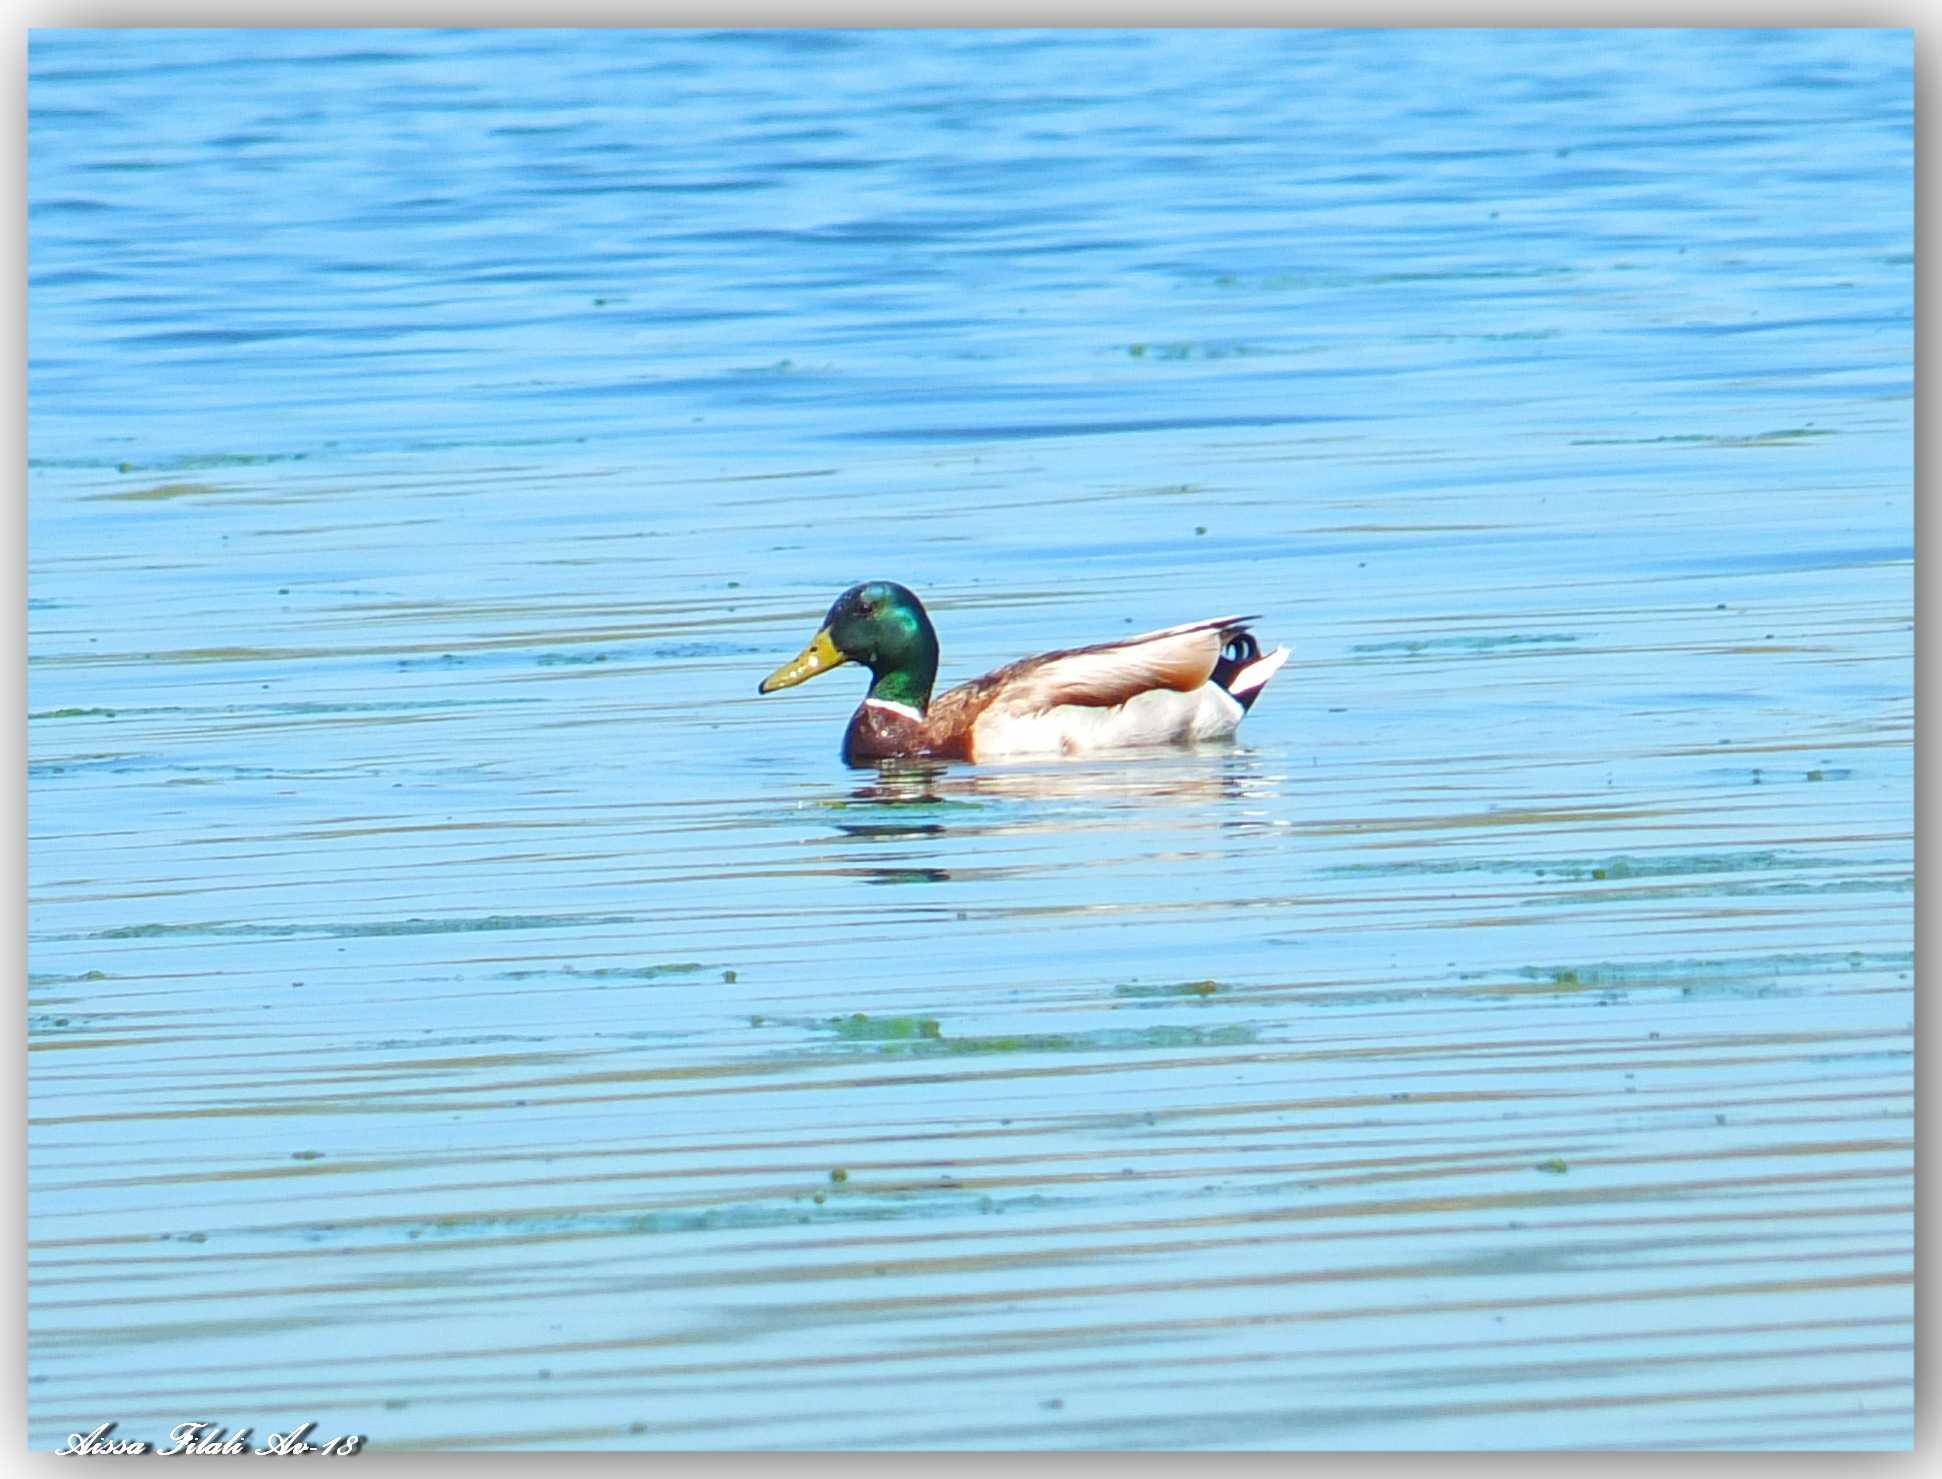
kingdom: Animalia
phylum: Chordata
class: Aves
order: Anseriformes
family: Anatidae
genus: Anas
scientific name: Anas platyrhynchos
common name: Mallard
